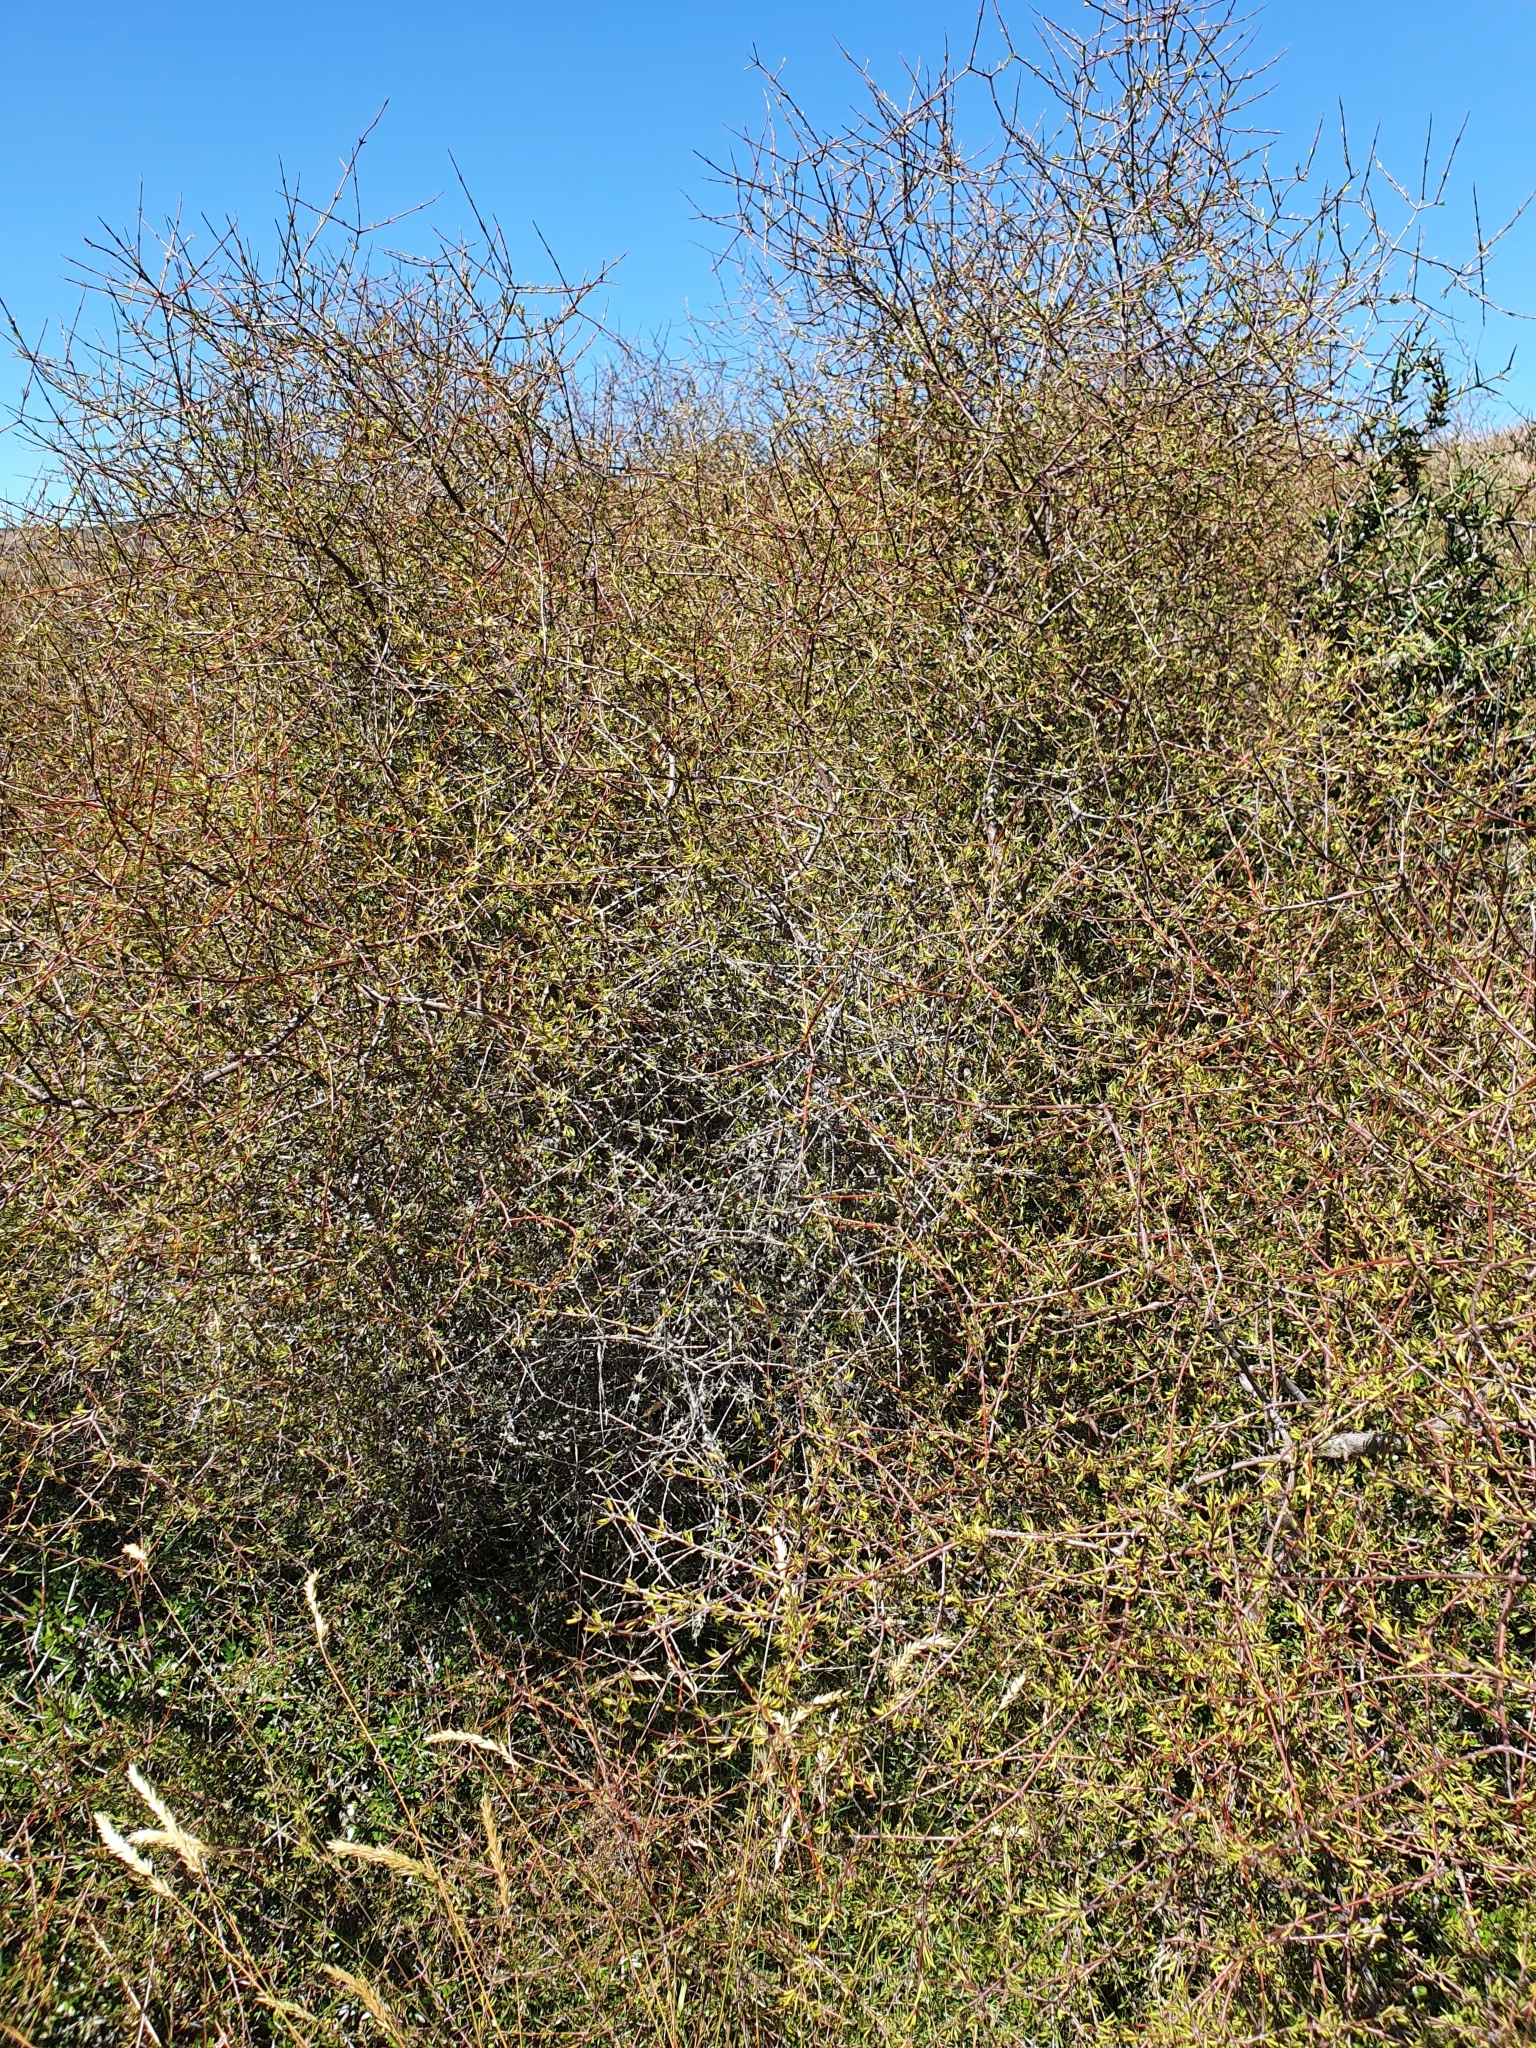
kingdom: Plantae
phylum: Tracheophyta
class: Magnoliopsida
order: Gentianales
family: Rubiaceae
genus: Coprosma
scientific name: Coprosma intertexta
